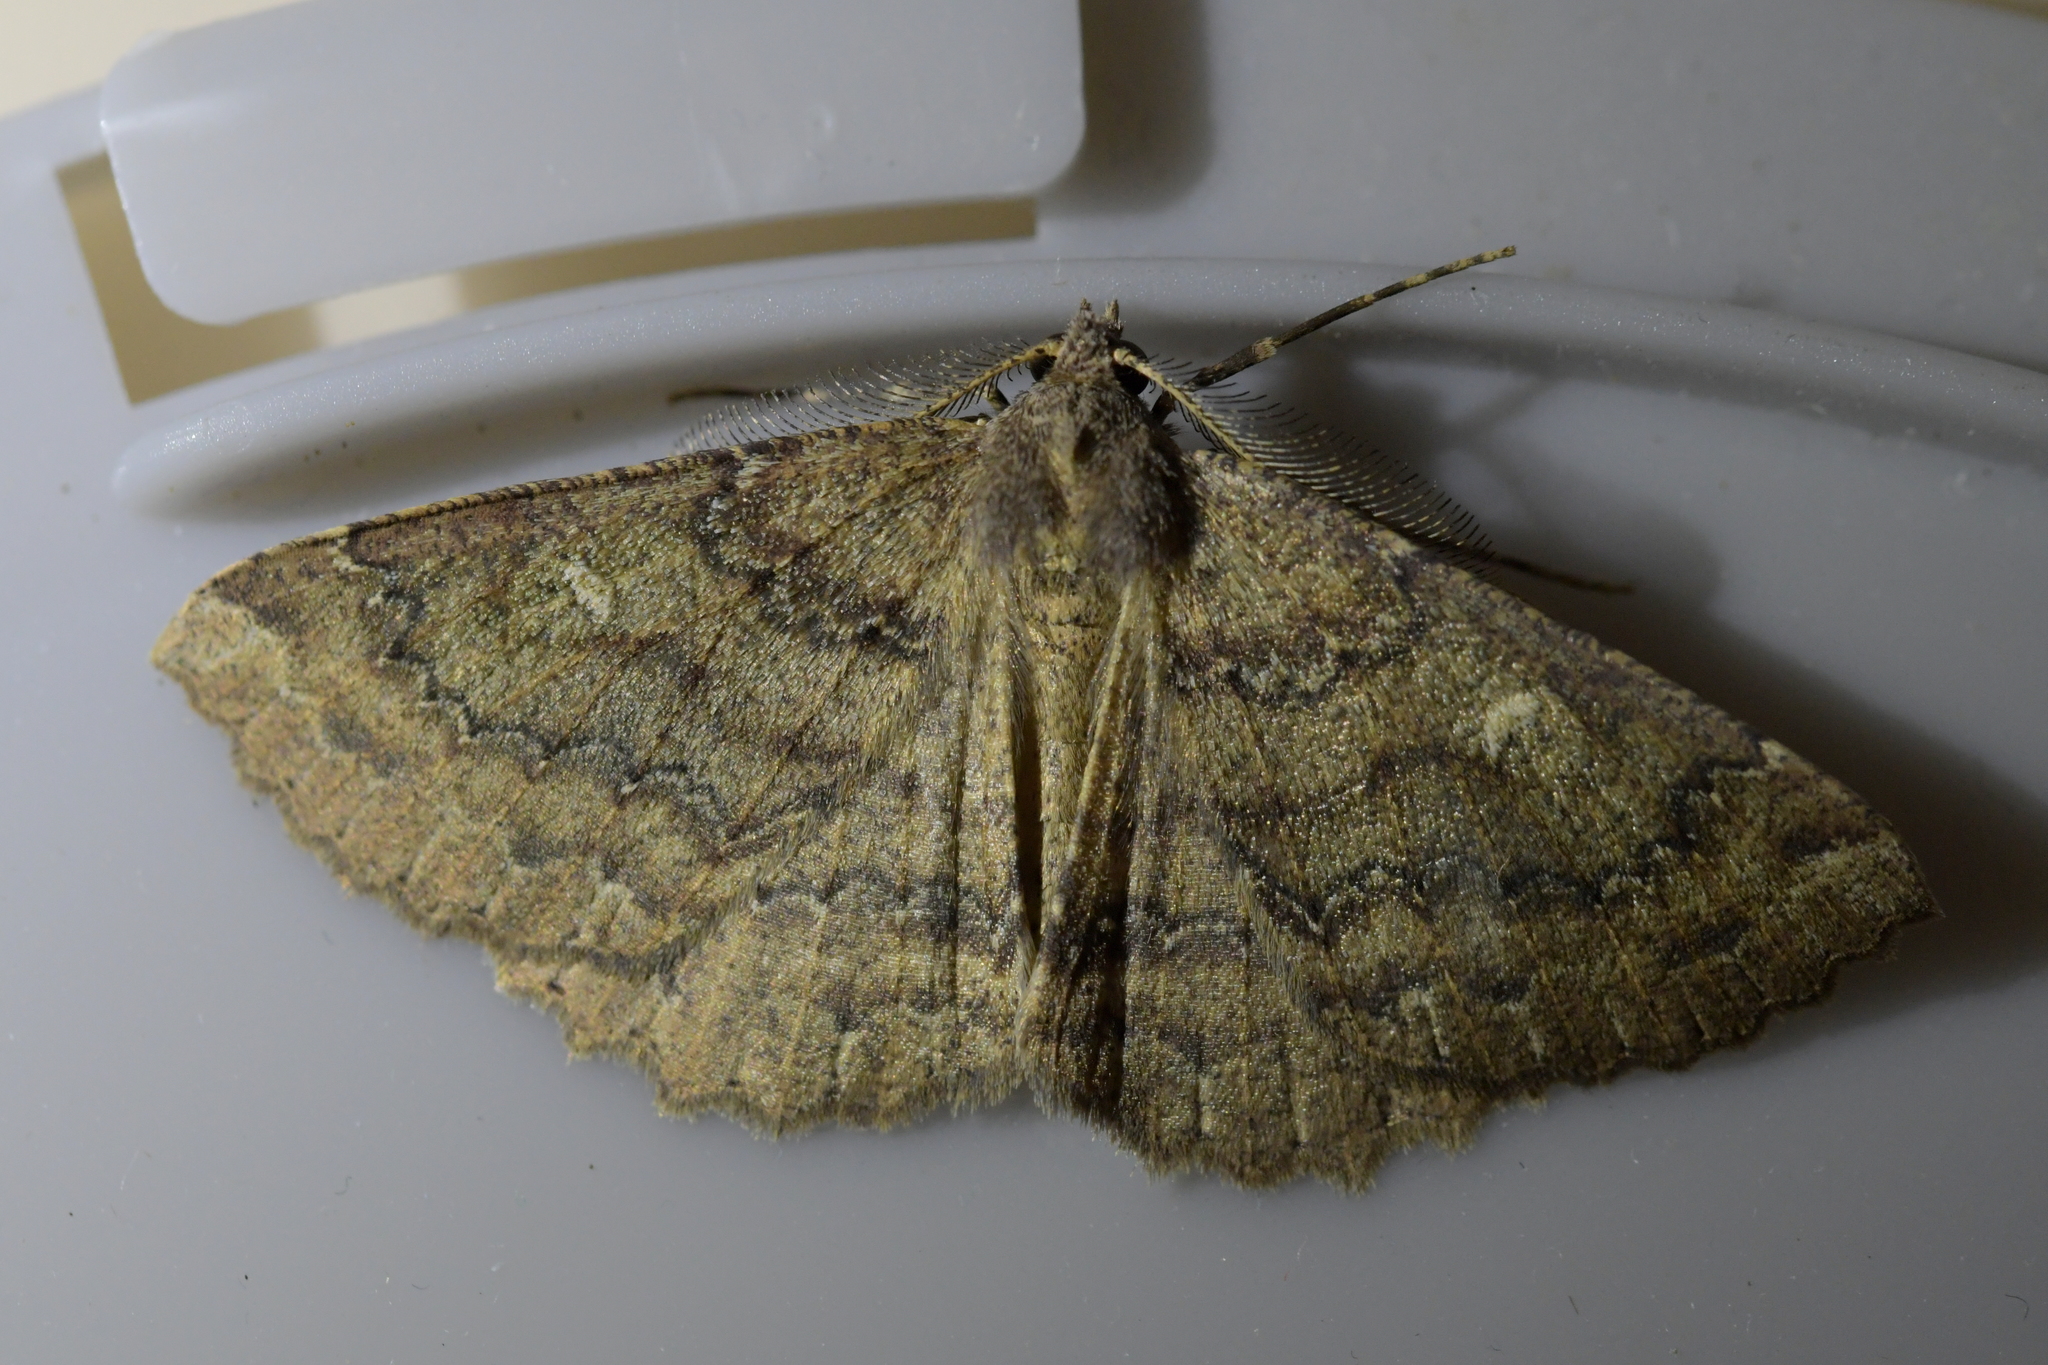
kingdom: Animalia
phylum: Arthropoda
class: Insecta
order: Lepidoptera
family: Geometridae
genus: Cleora
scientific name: Cleora scriptaria
